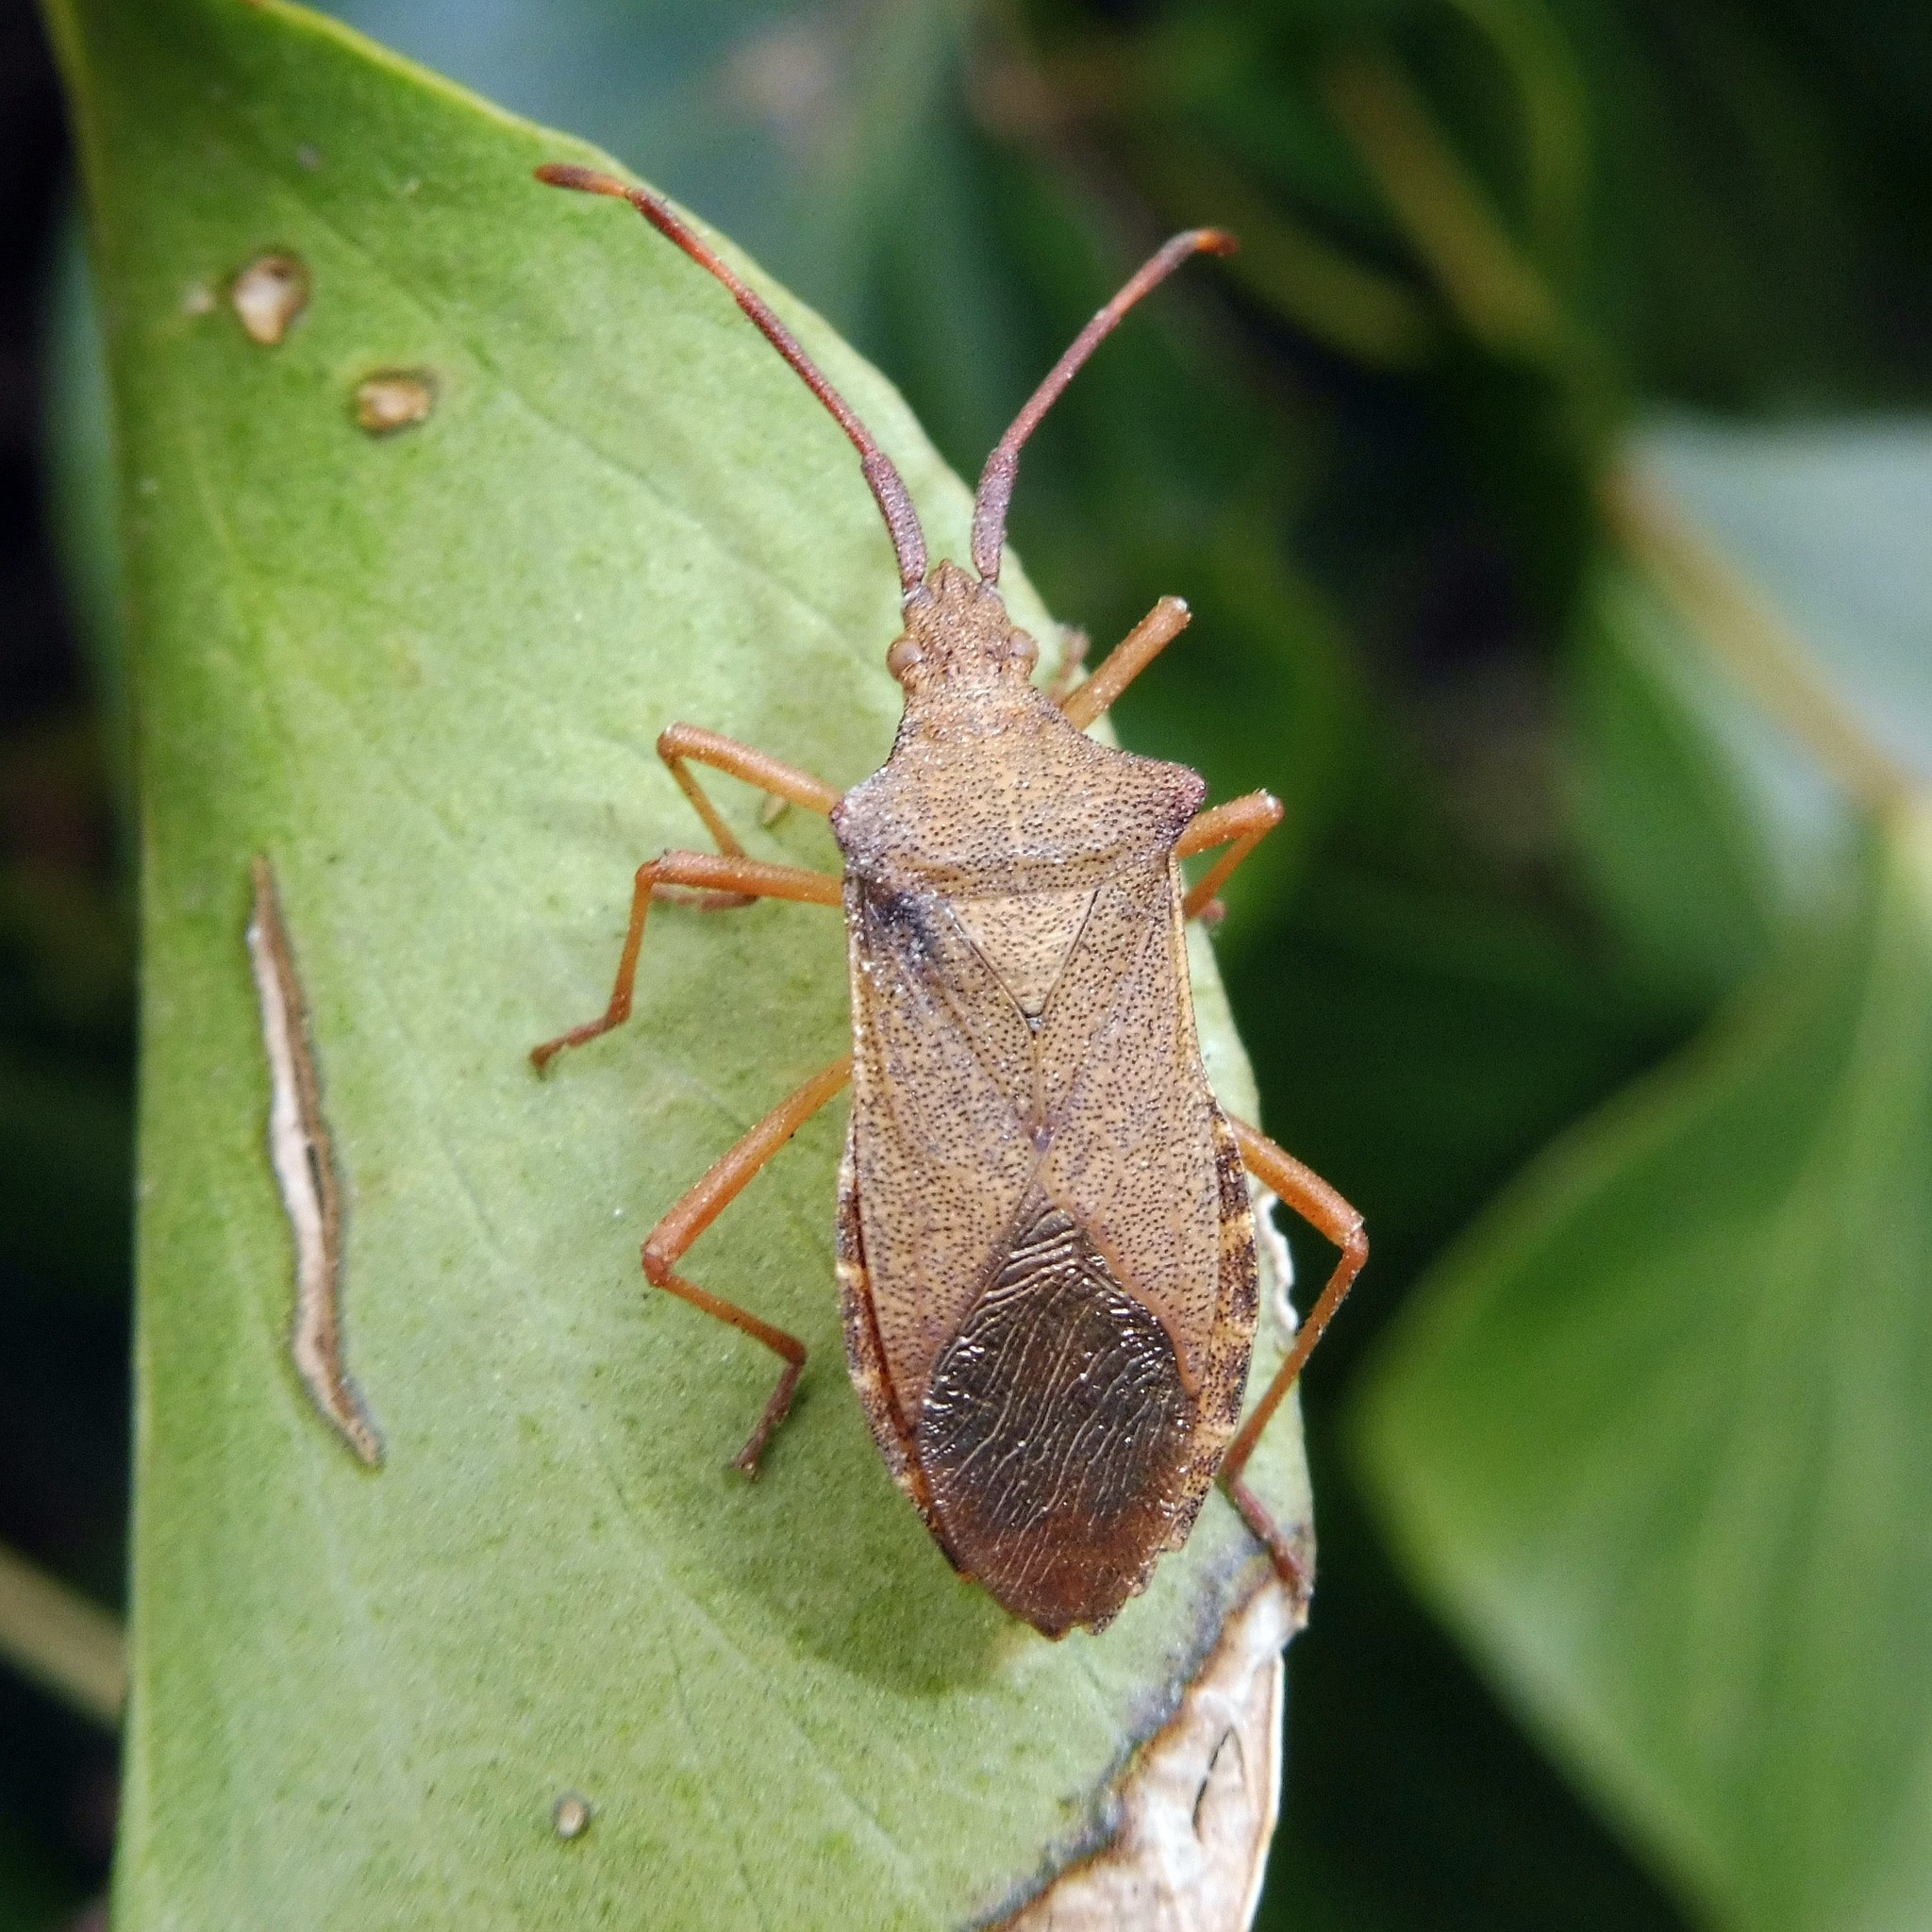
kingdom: Animalia
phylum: Arthropoda
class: Insecta
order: Hemiptera
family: Coreidae
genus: Gonocerus
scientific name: Gonocerus acuteangulatus
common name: Box bug
